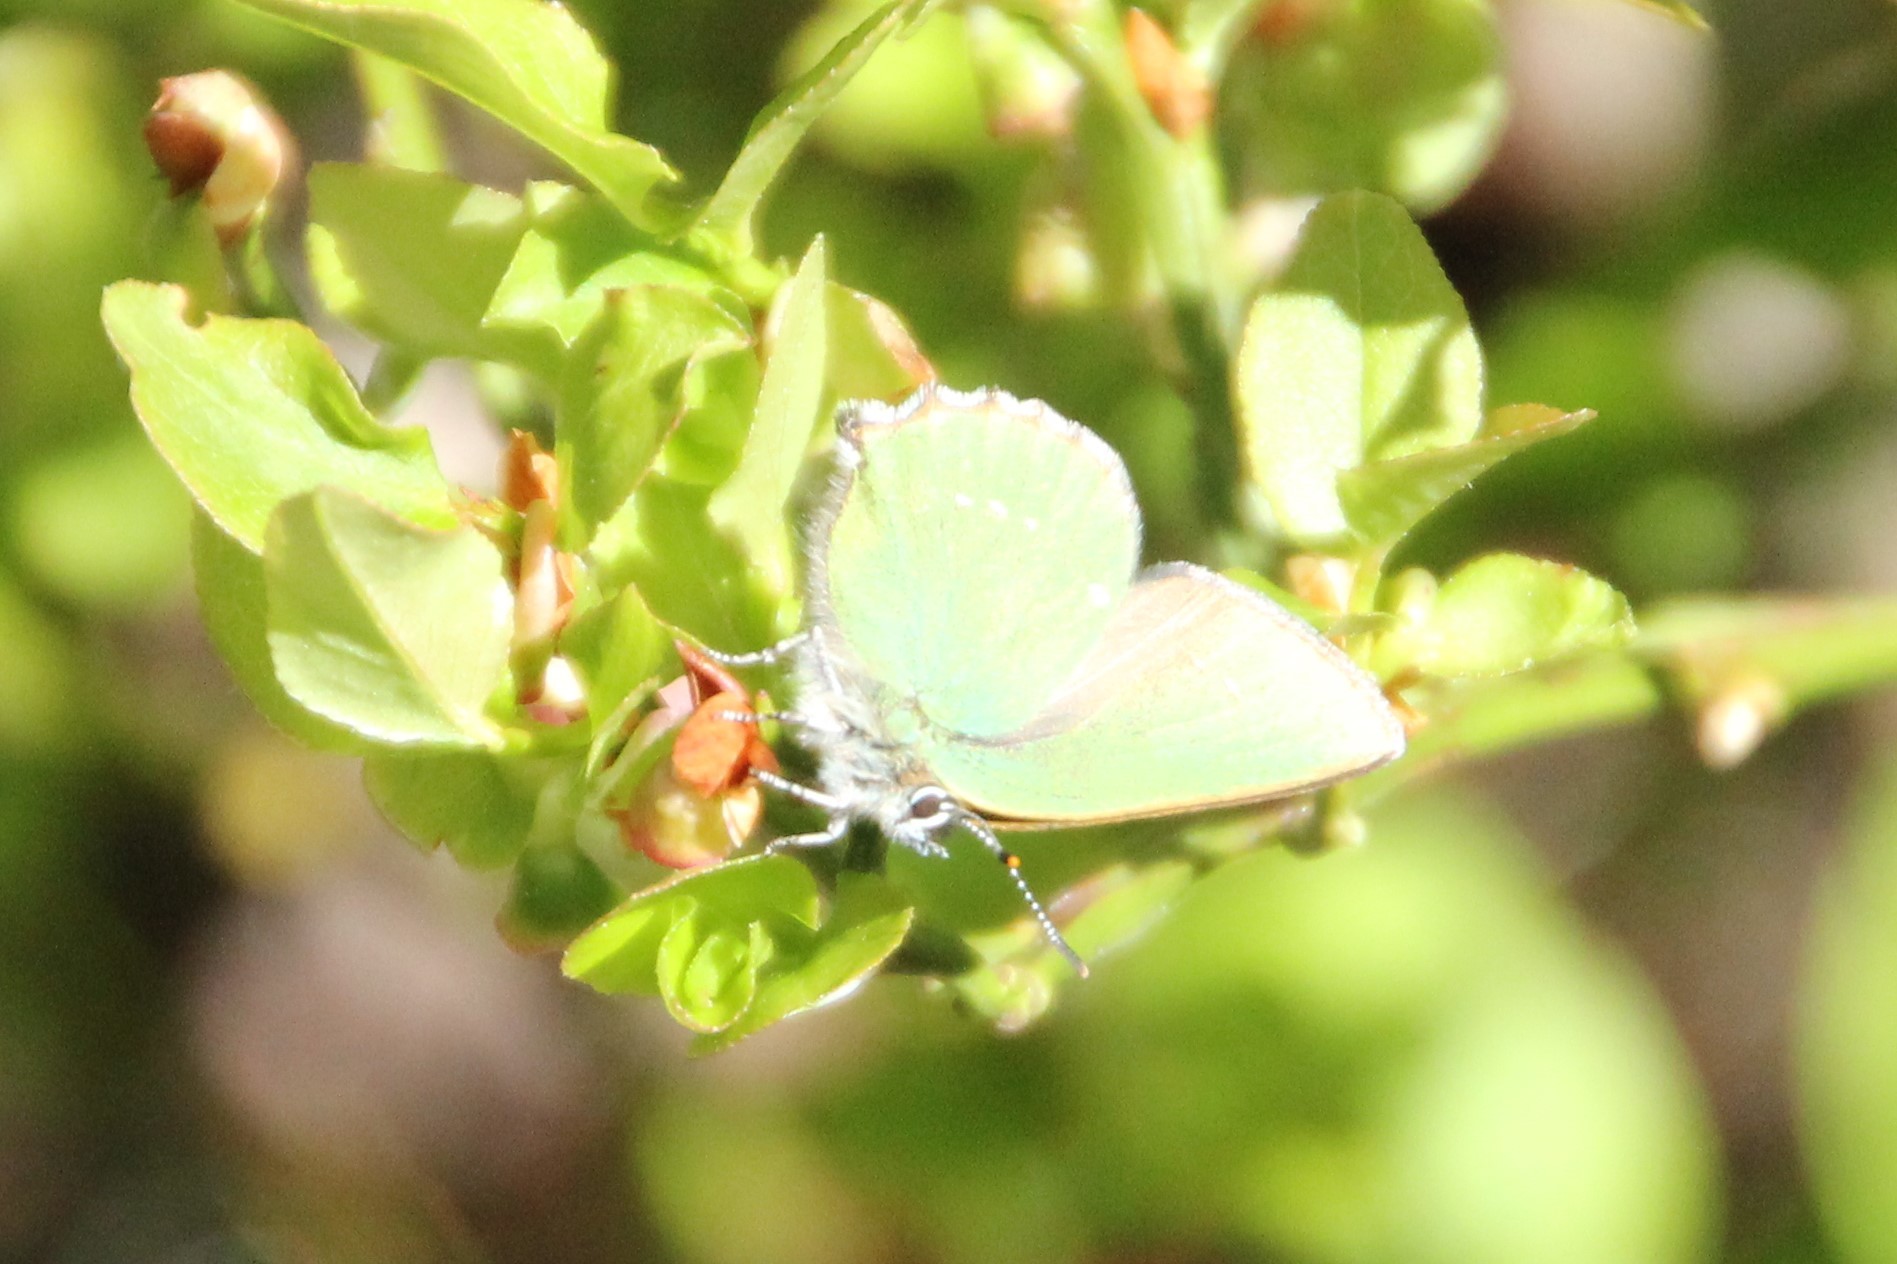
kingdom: Animalia
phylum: Arthropoda
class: Insecta
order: Lepidoptera
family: Lycaenidae
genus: Callophrys
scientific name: Callophrys rubi
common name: Green hairstreak
